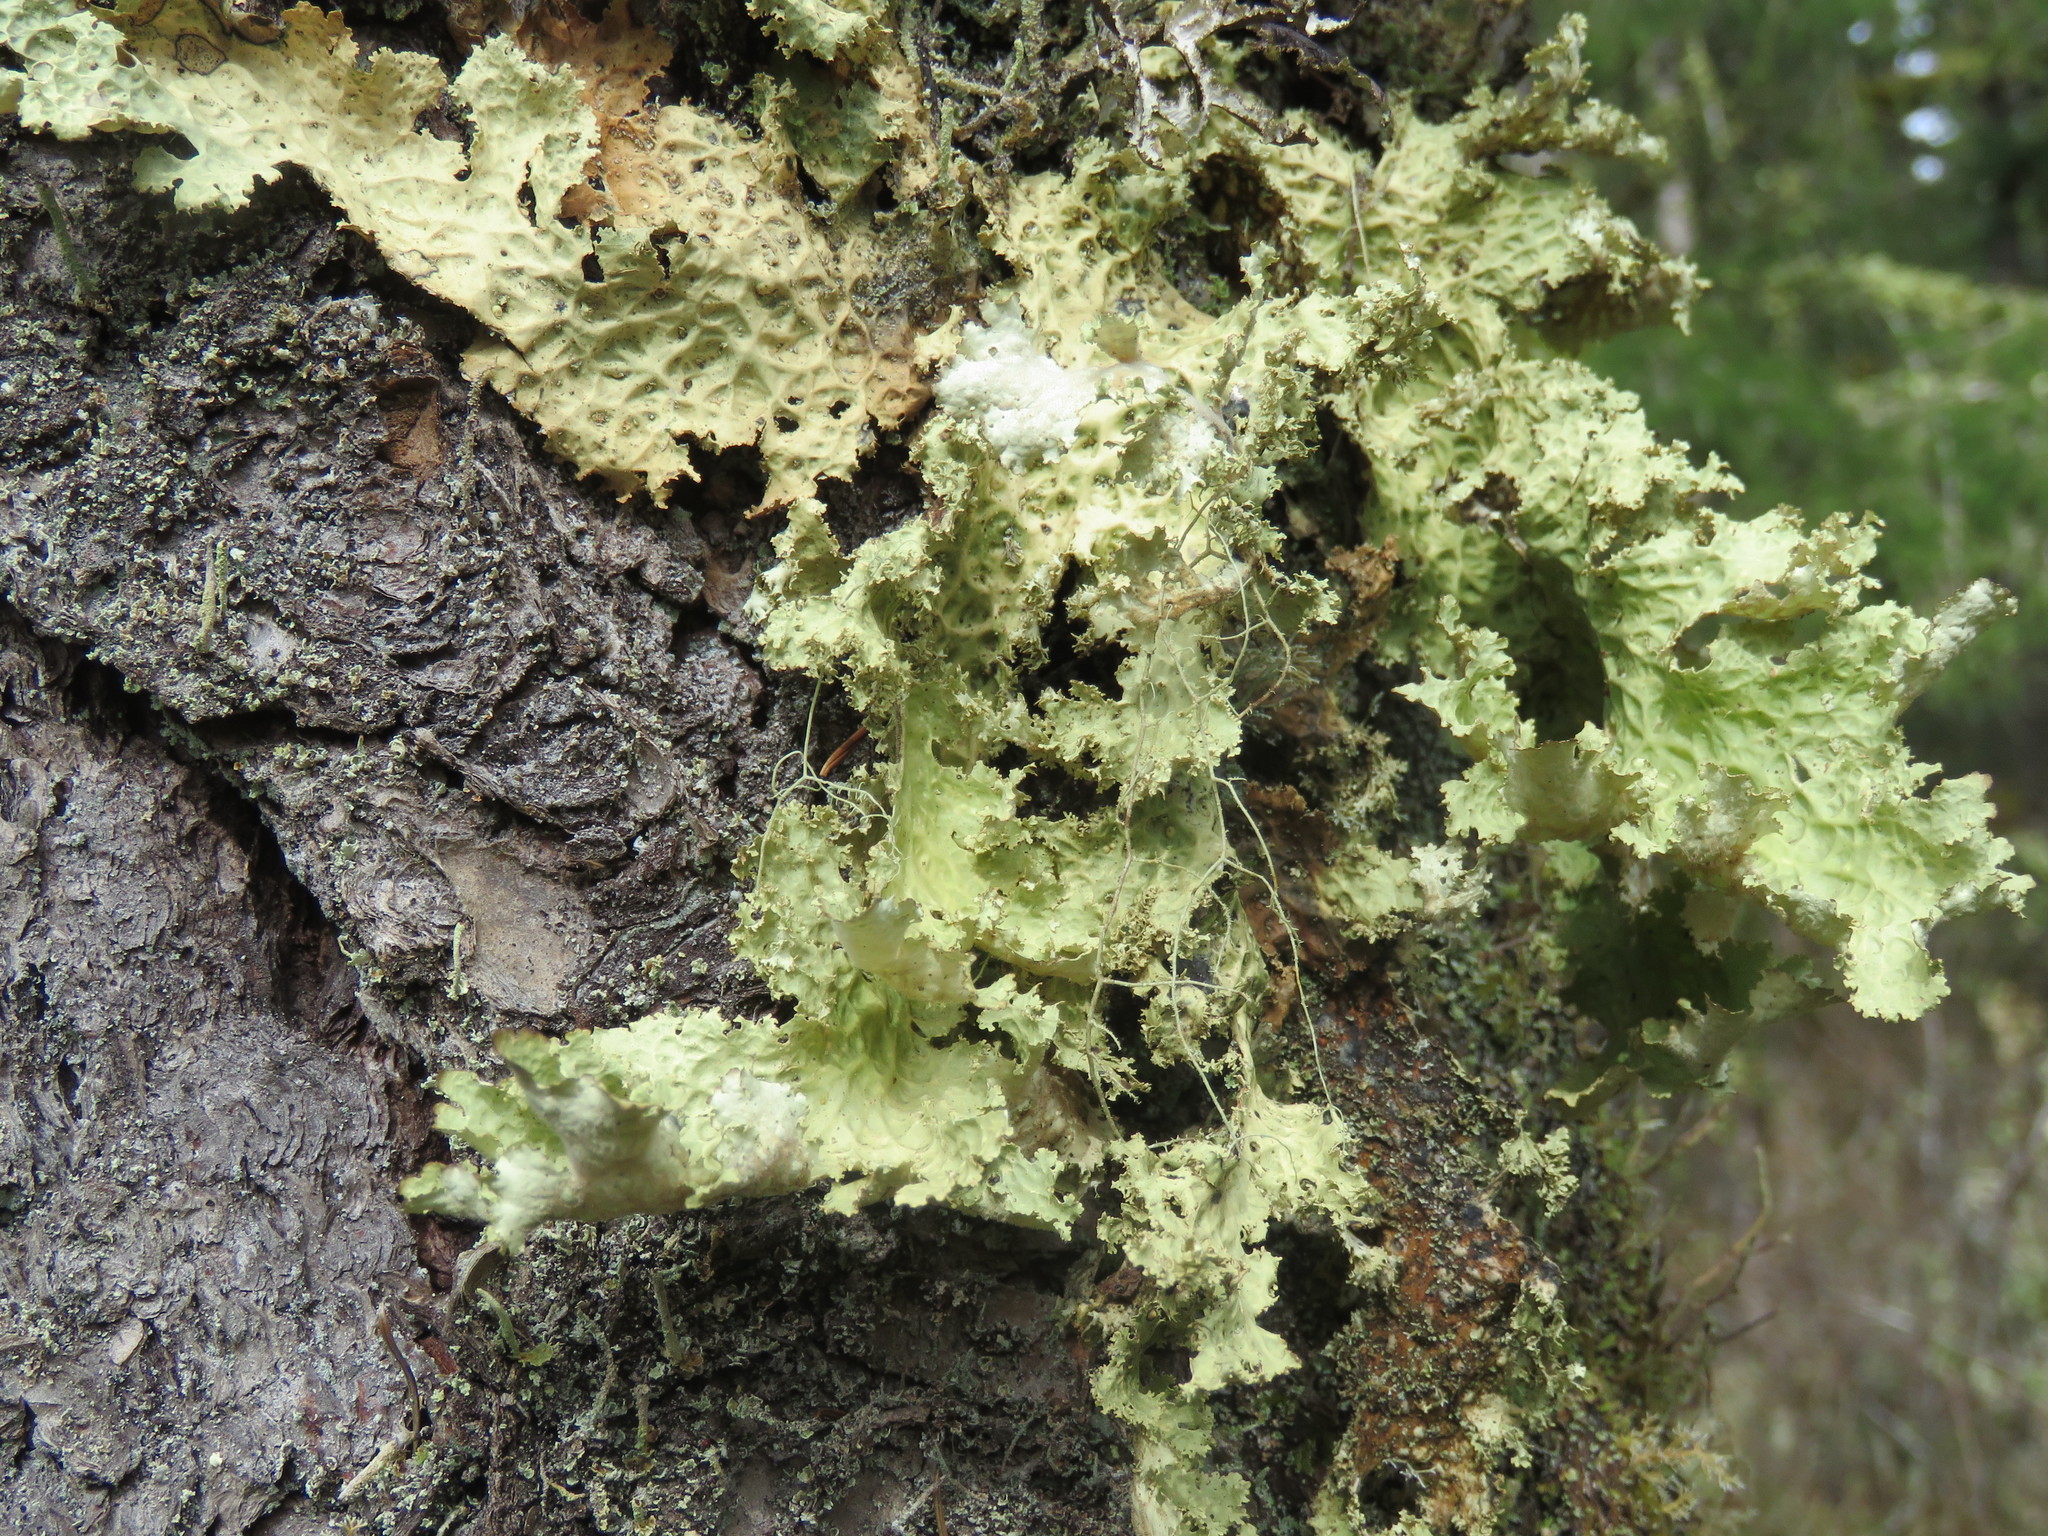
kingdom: Fungi
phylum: Ascomycota
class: Lecanoromycetes
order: Peltigerales
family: Lobariaceae
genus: Lobaria
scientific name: Lobaria oregana
